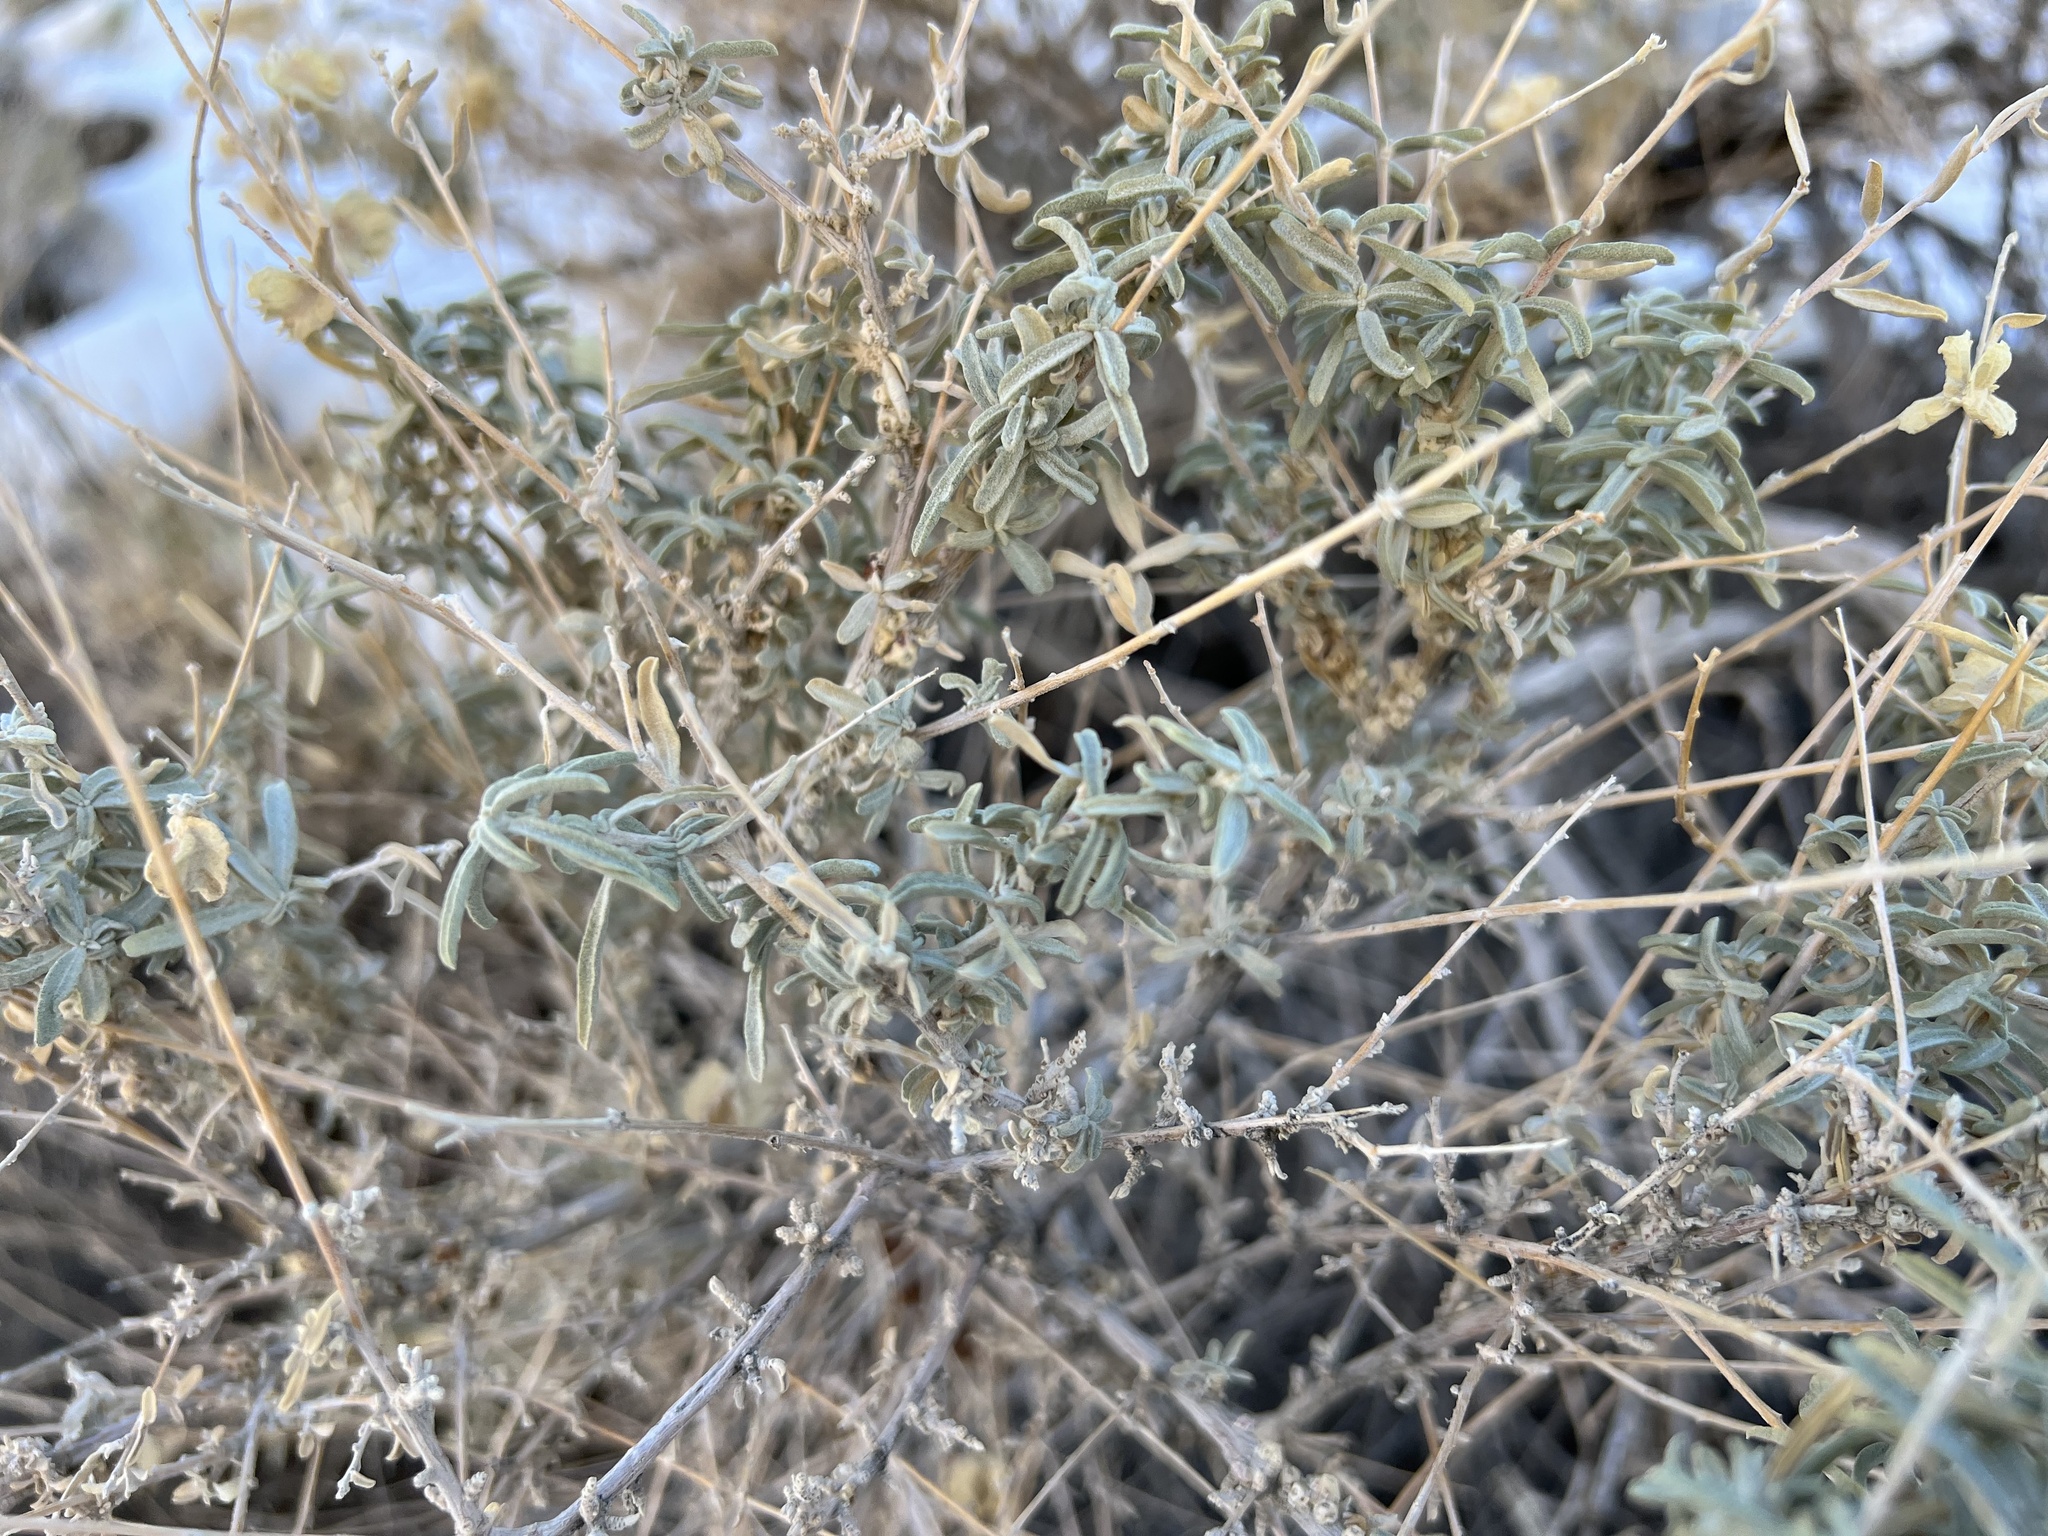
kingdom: Plantae
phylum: Tracheophyta
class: Magnoliopsida
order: Caryophyllales
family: Amaranthaceae
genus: Atriplex
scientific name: Atriplex canescens
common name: Four-wing saltbush
